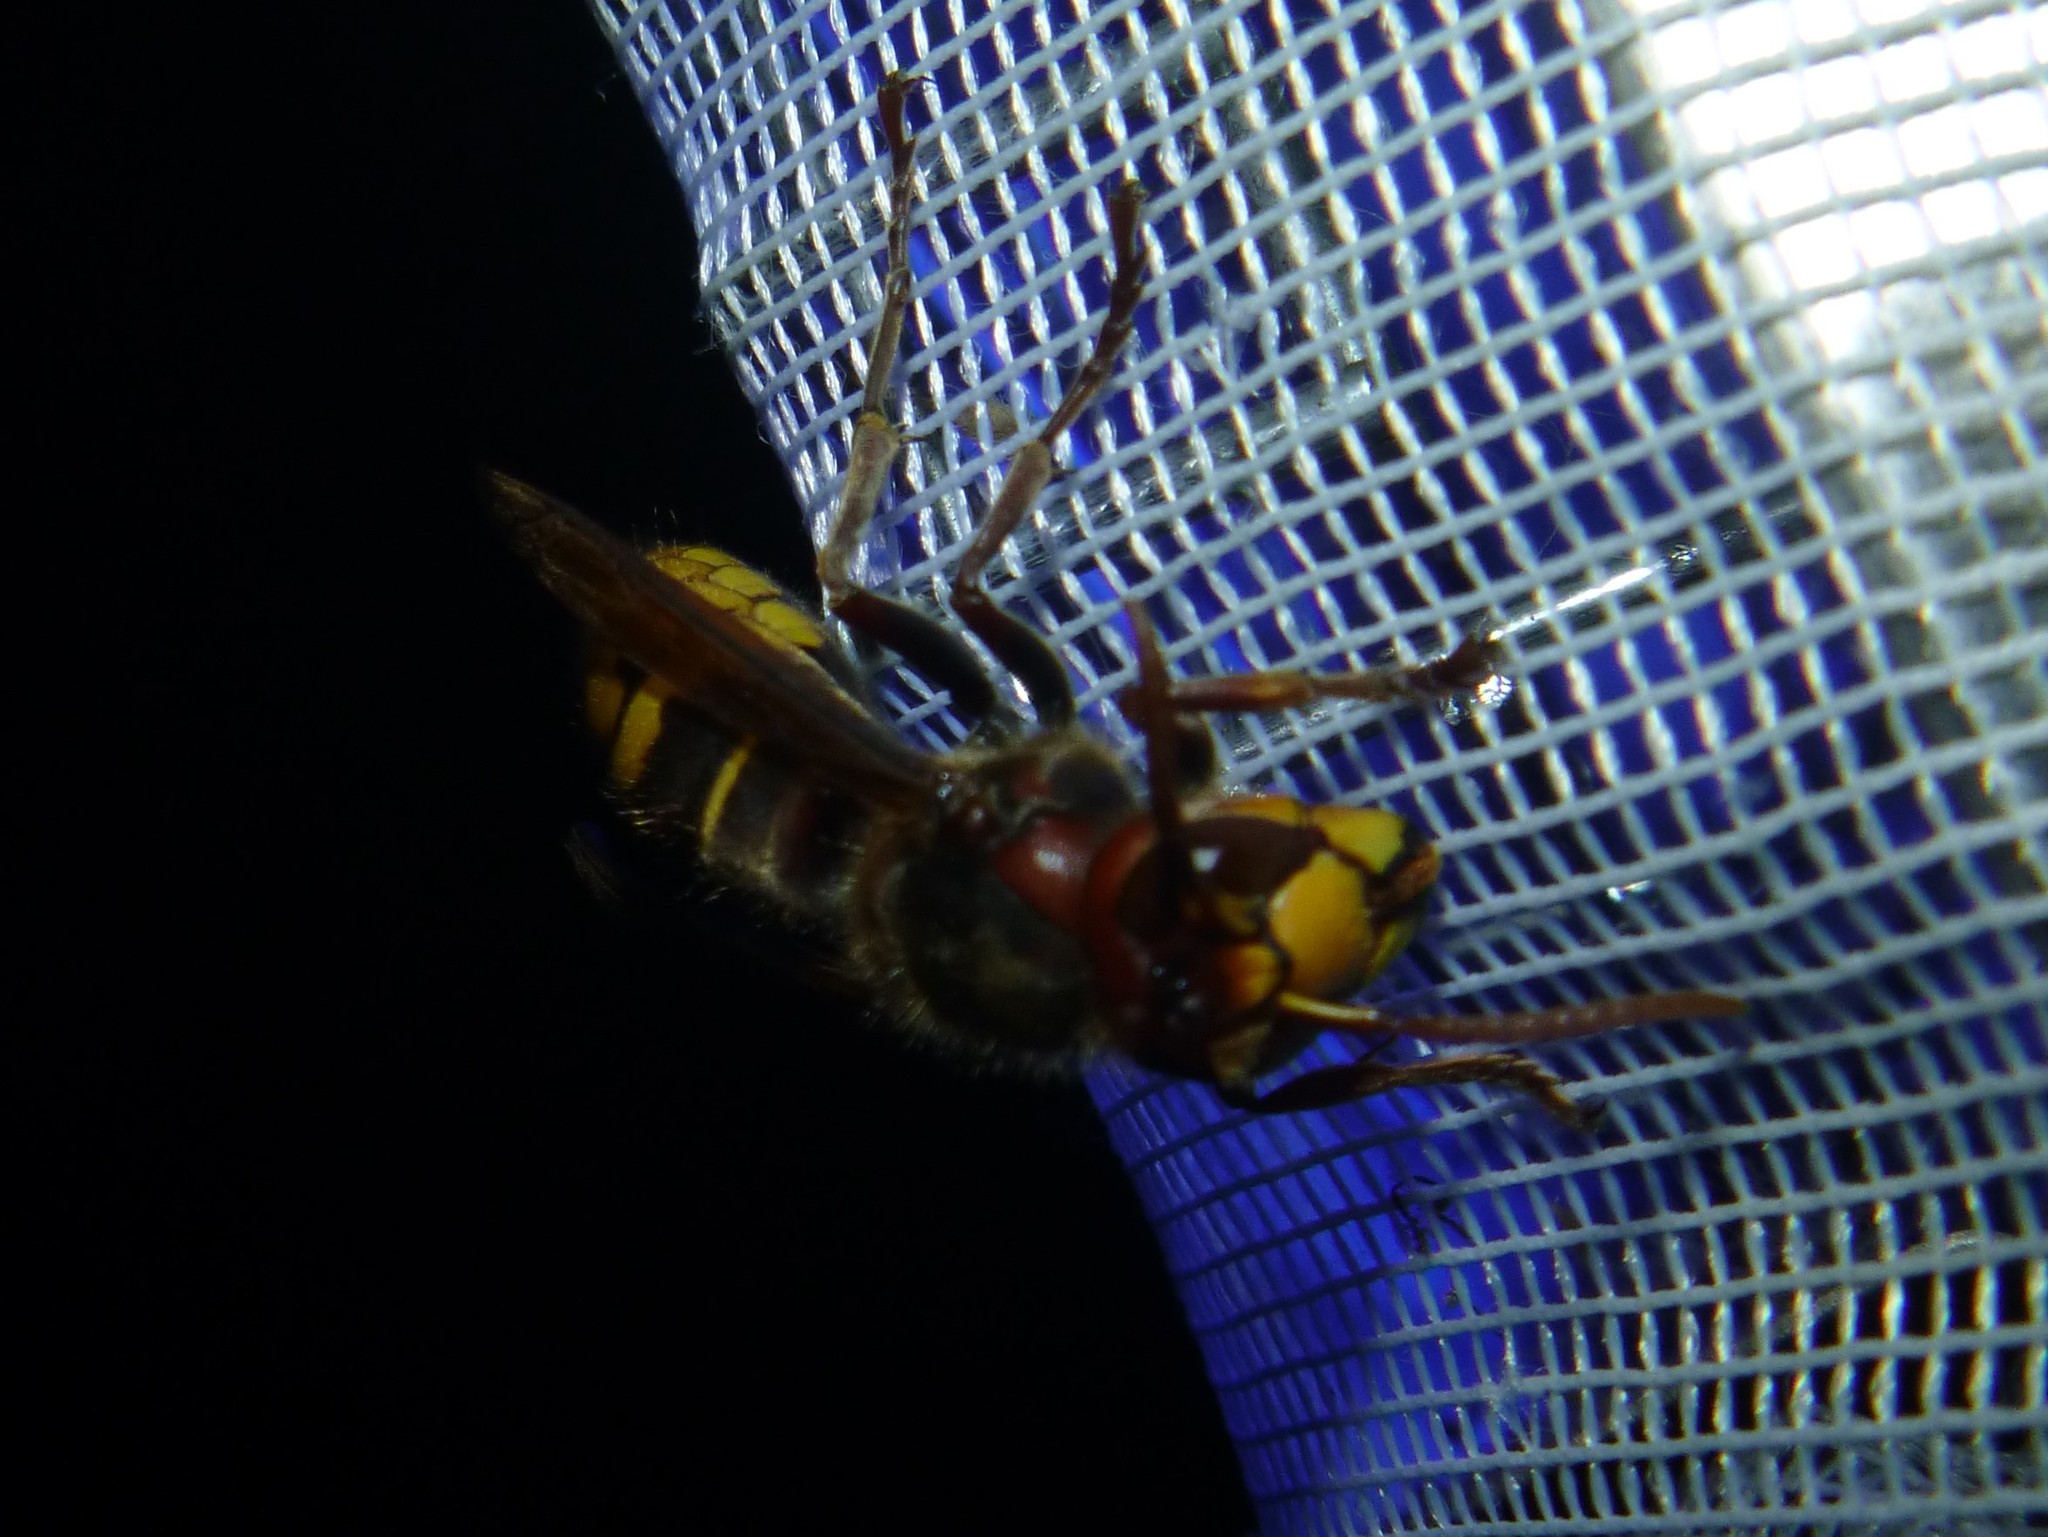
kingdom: Animalia
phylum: Arthropoda
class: Insecta
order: Hymenoptera
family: Vespidae
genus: Vespa
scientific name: Vespa crabro
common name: Hornet
